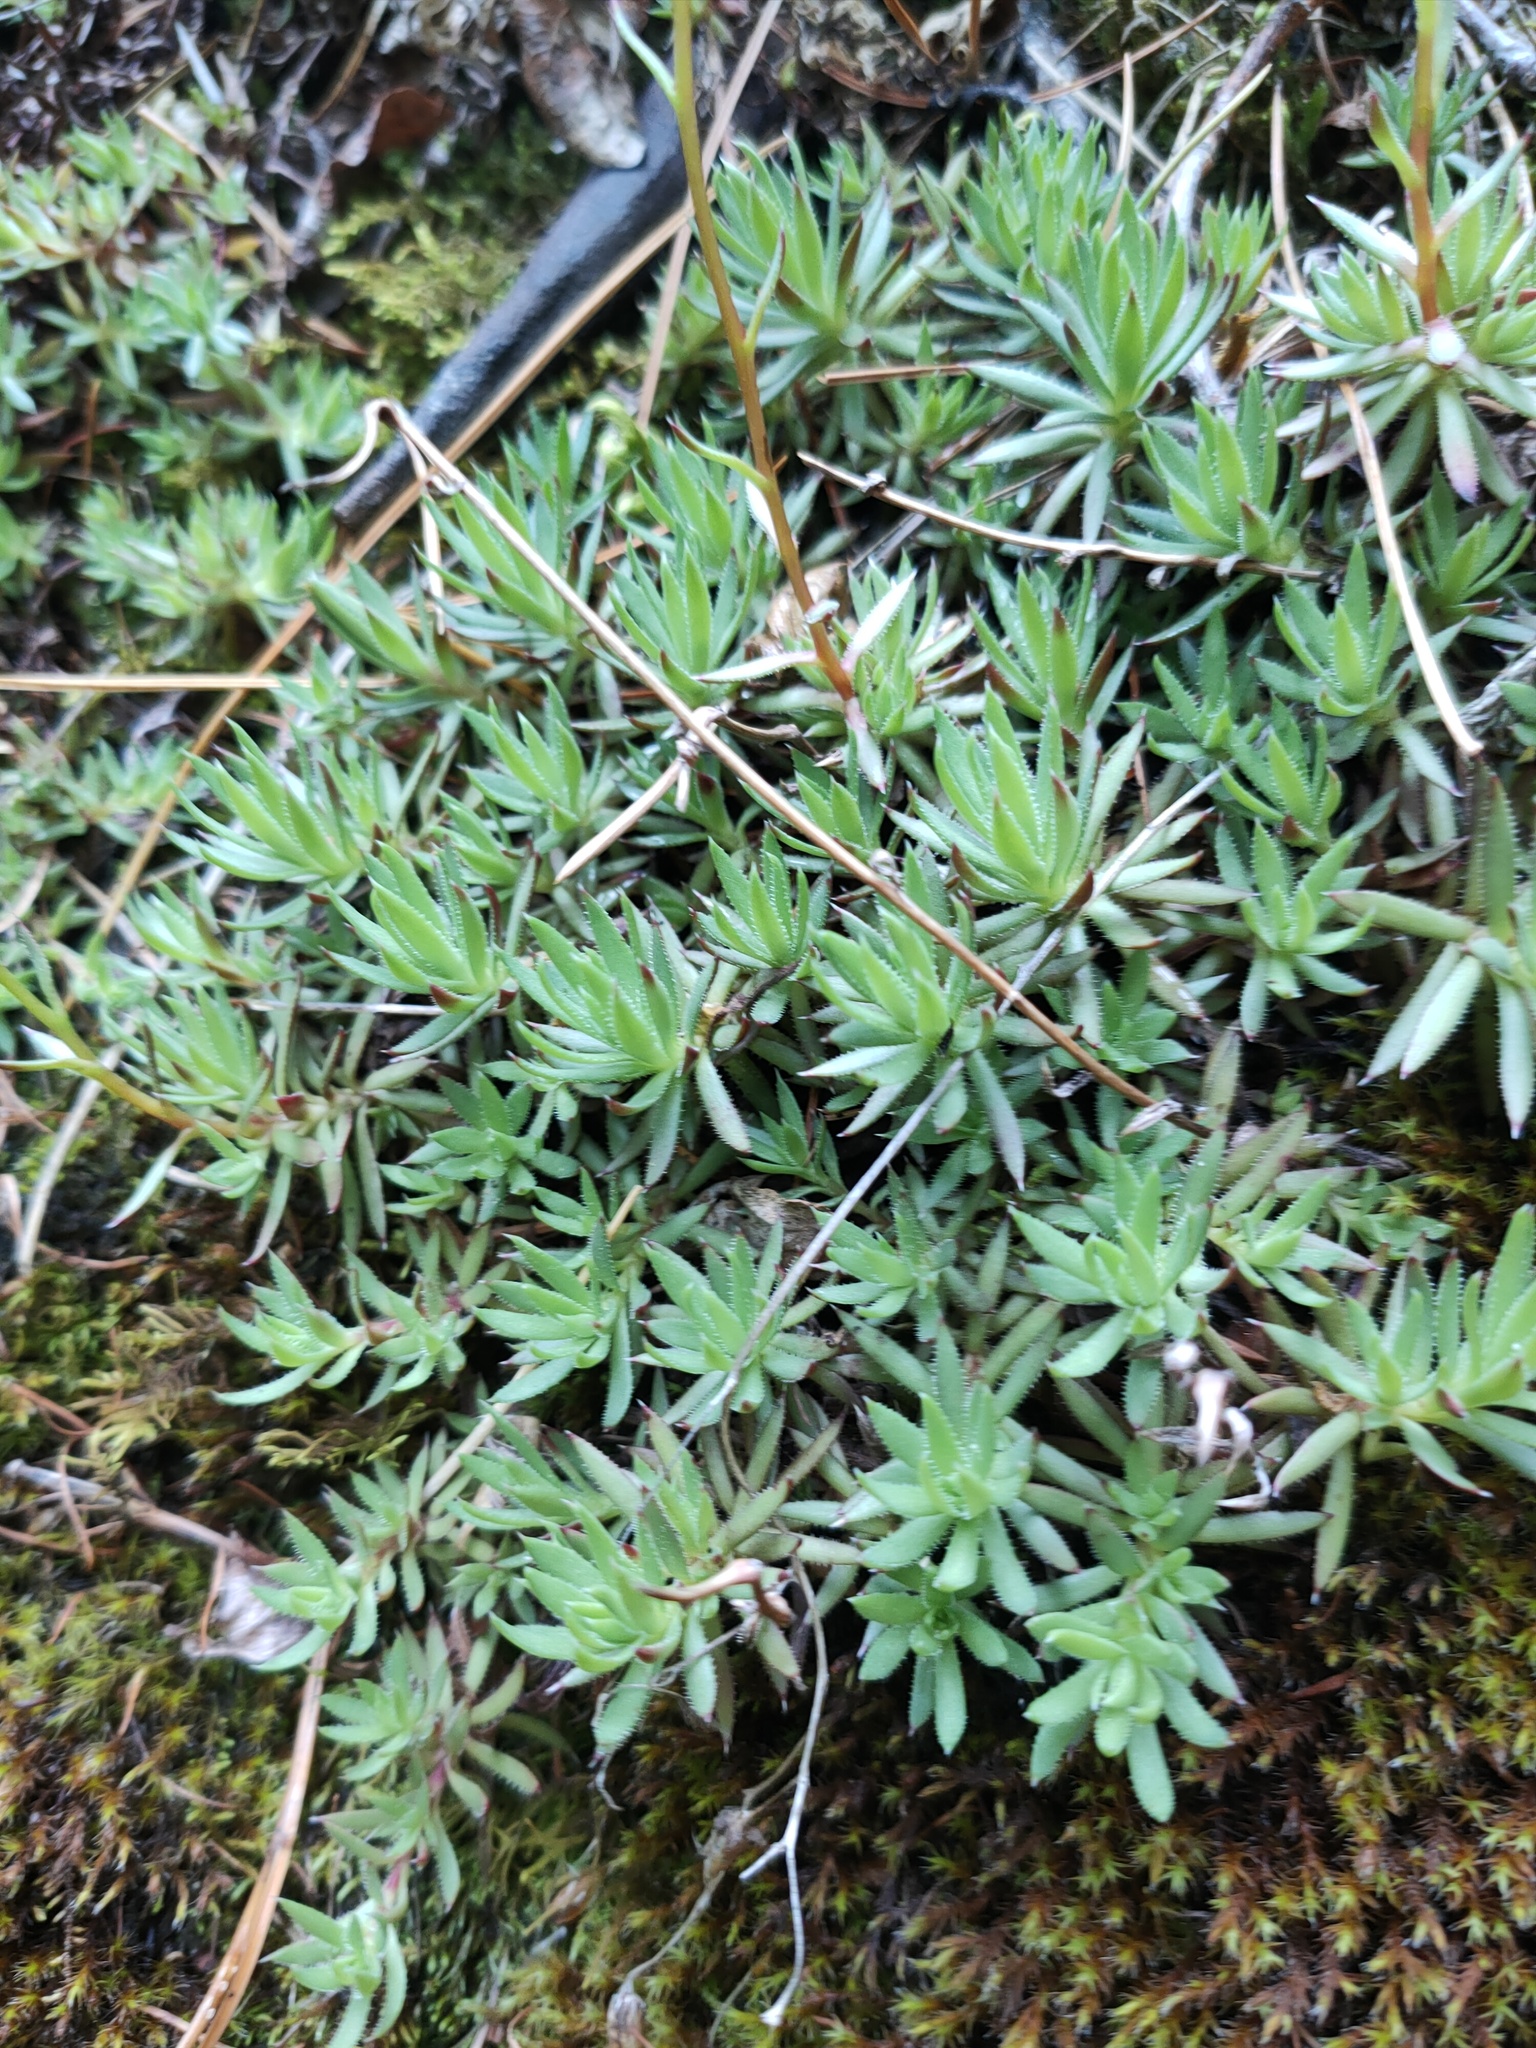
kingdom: Plantae
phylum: Tracheophyta
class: Magnoliopsida
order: Saxifragales
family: Saxifragaceae
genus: Saxifraga
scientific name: Saxifraga
